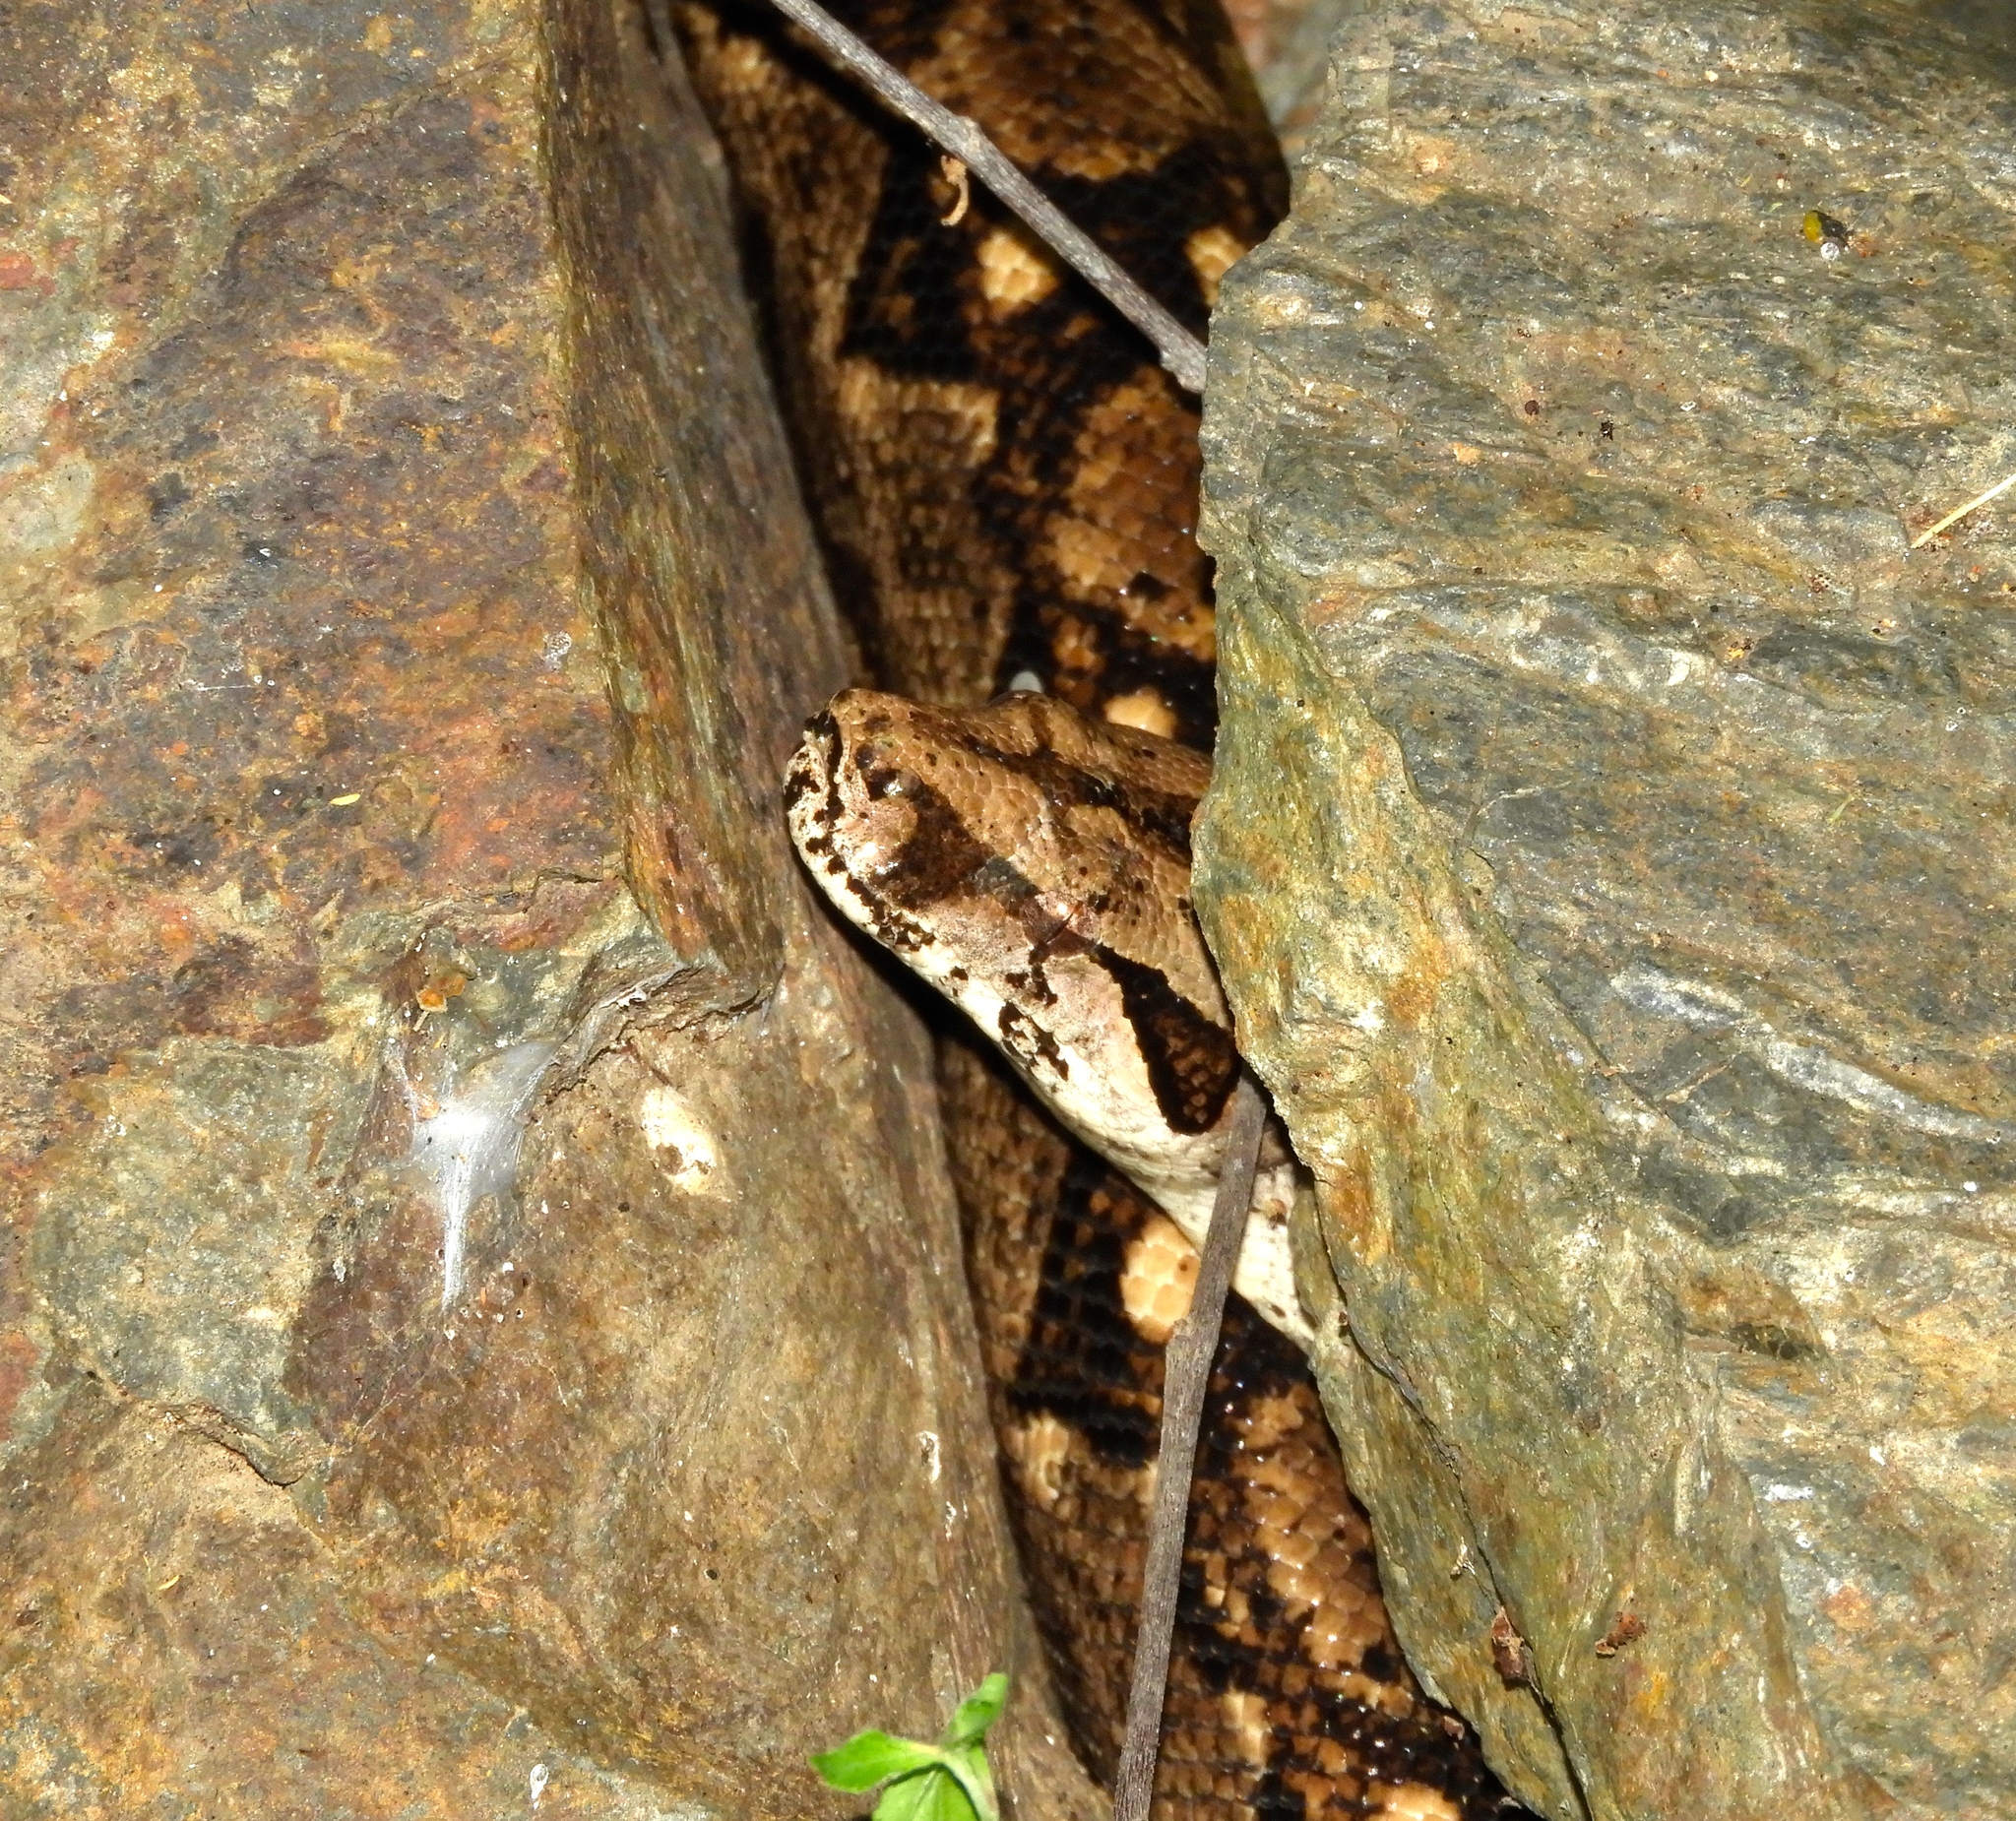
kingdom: Animalia
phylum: Chordata
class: Squamata
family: Boidae
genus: Boa
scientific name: Boa
